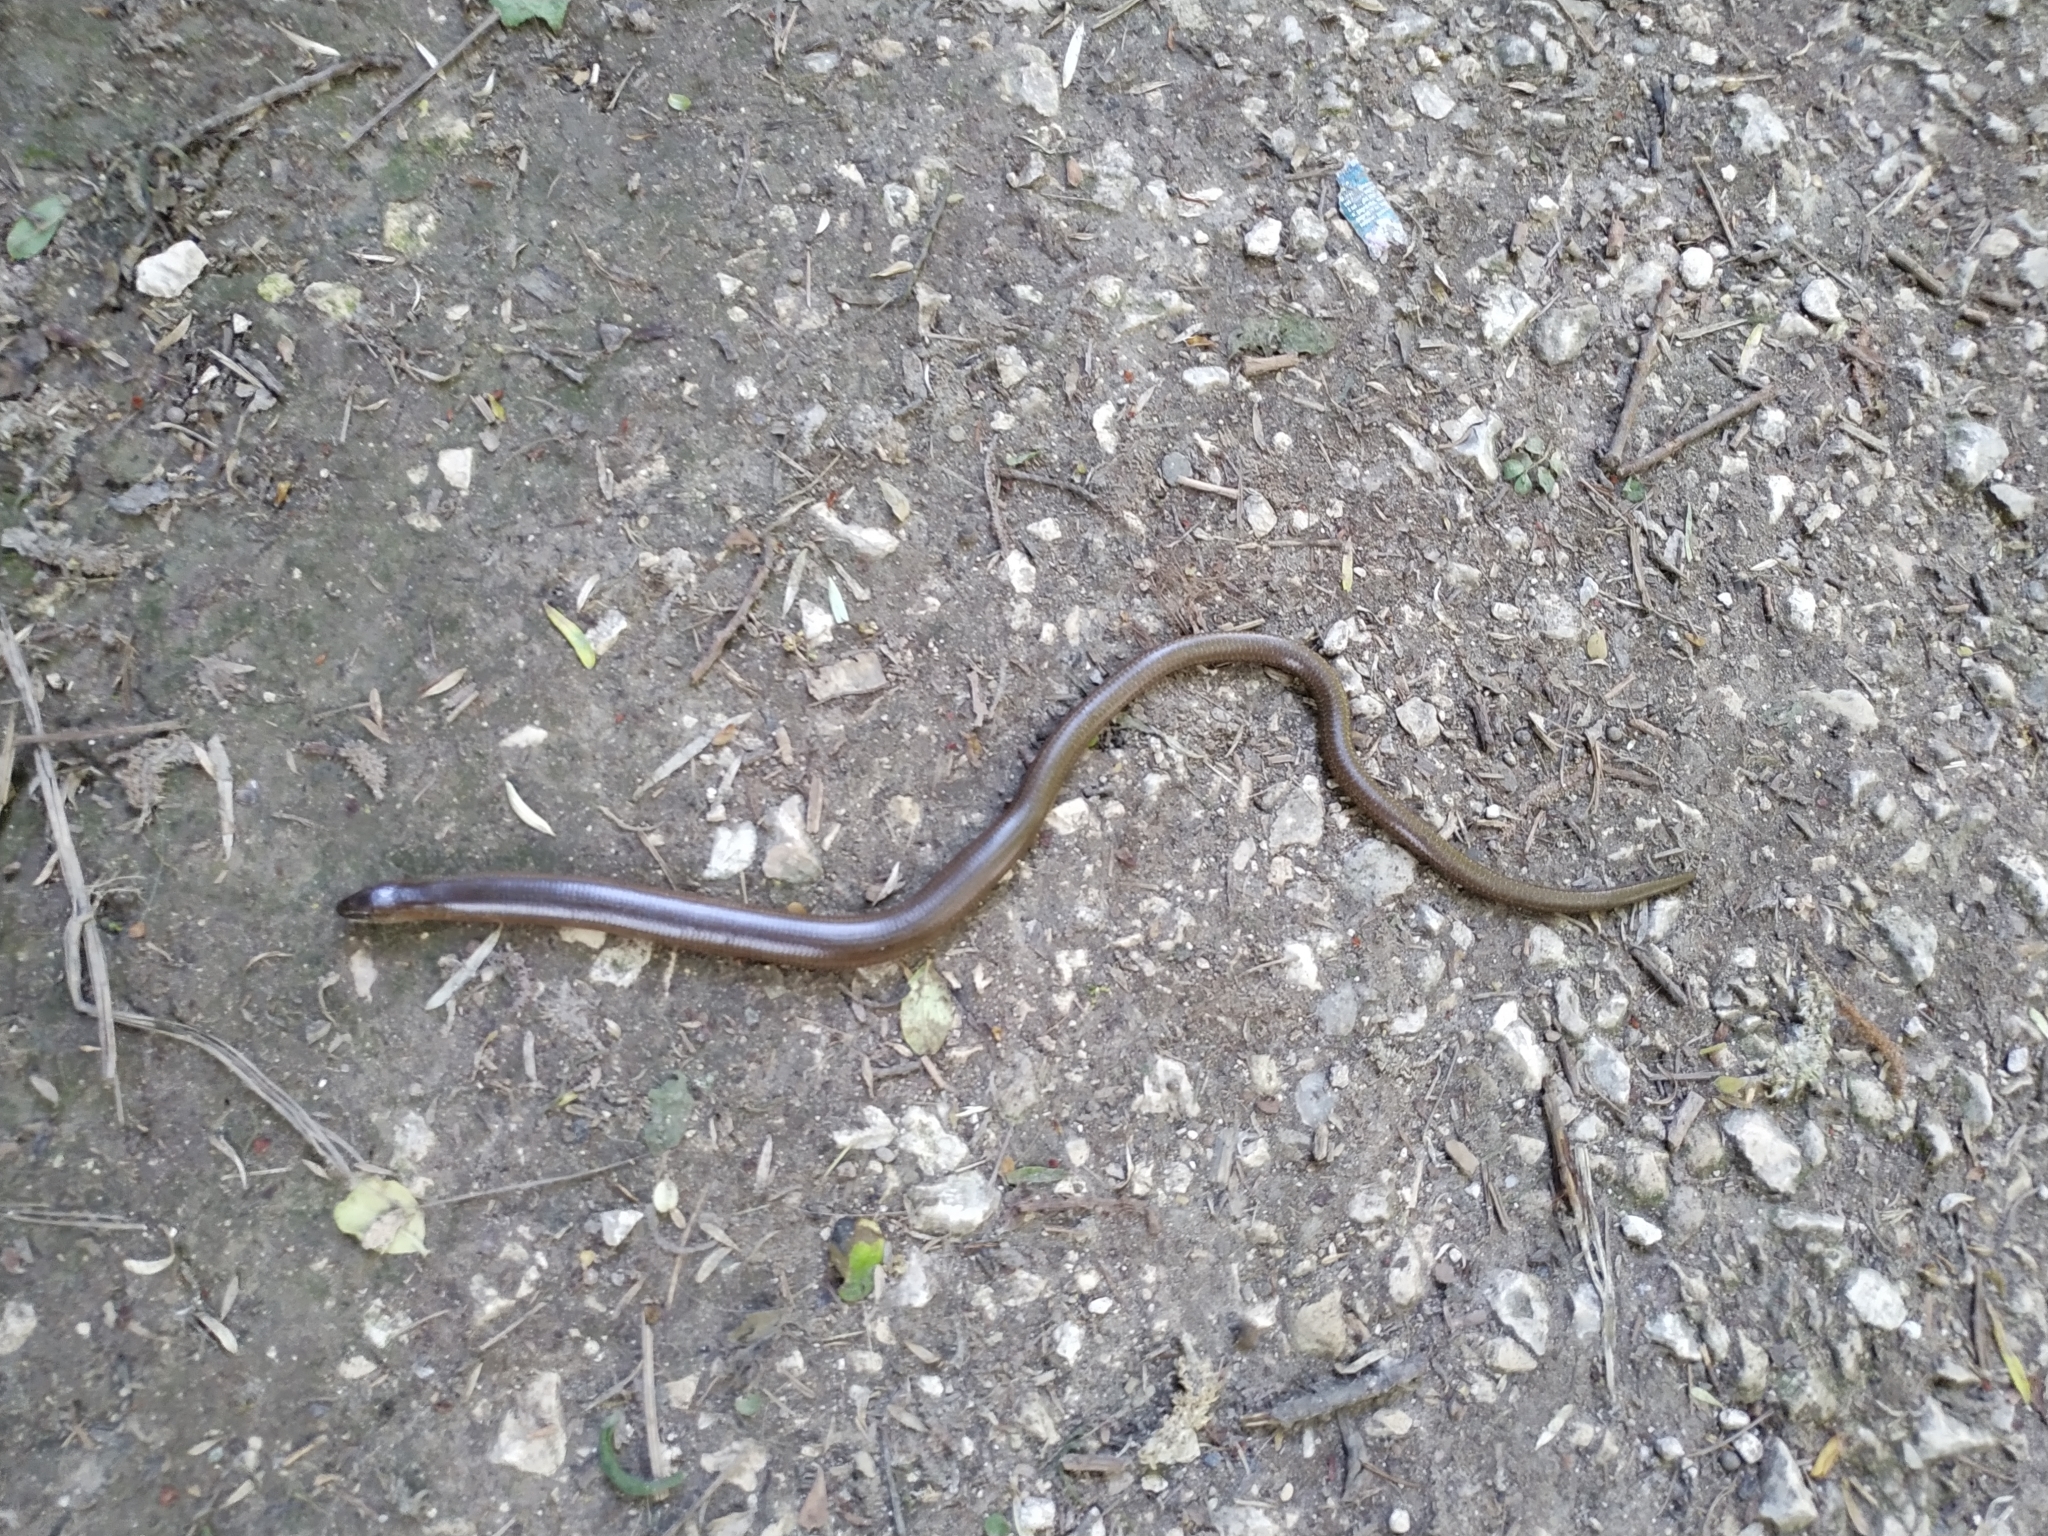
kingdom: Animalia
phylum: Chordata
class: Squamata
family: Anguidae
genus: Anguis
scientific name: Anguis fragilis
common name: Slow worm
